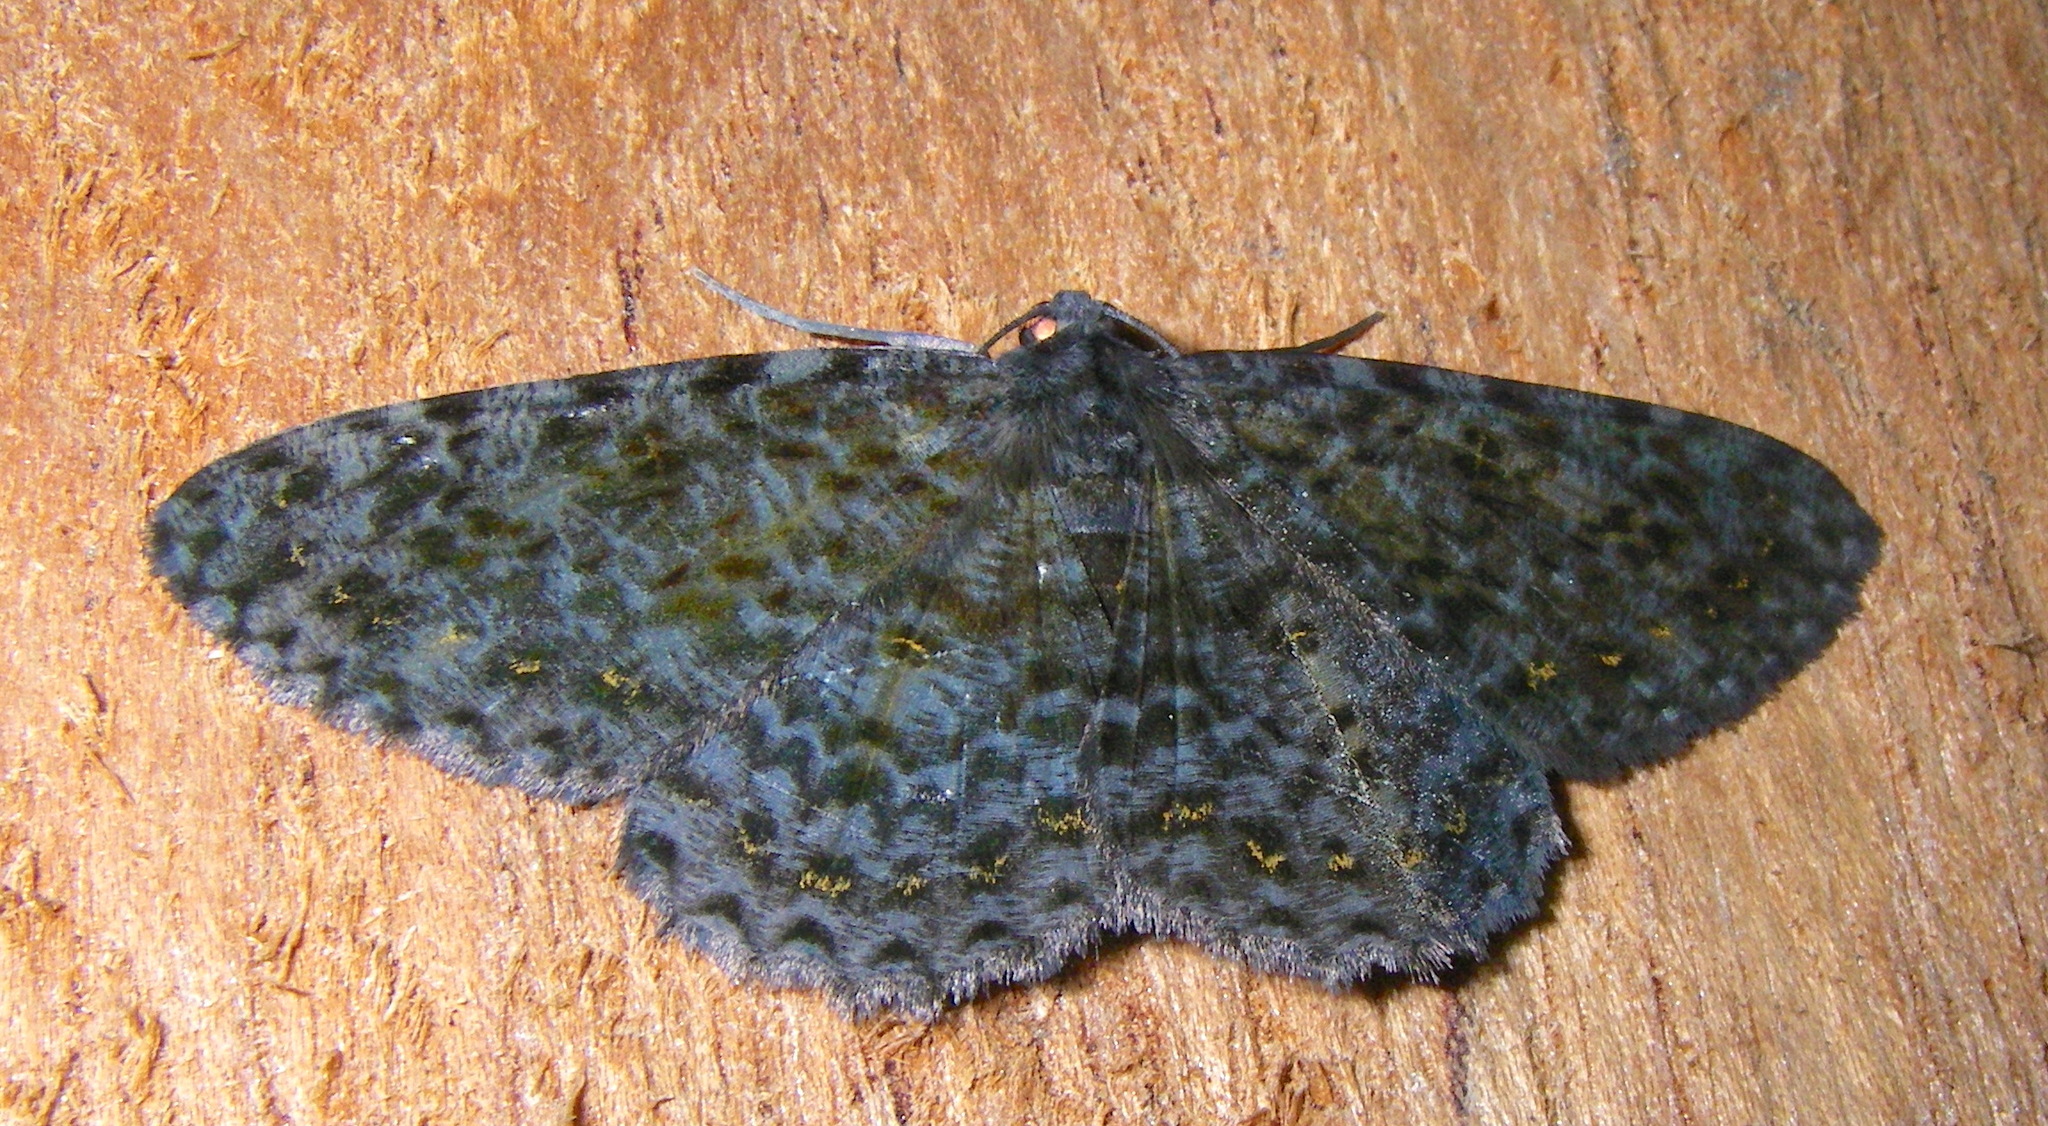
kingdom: Animalia
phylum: Arthropoda
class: Insecta
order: Lepidoptera
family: Geometridae
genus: Bracca
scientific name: Bracca commixta
